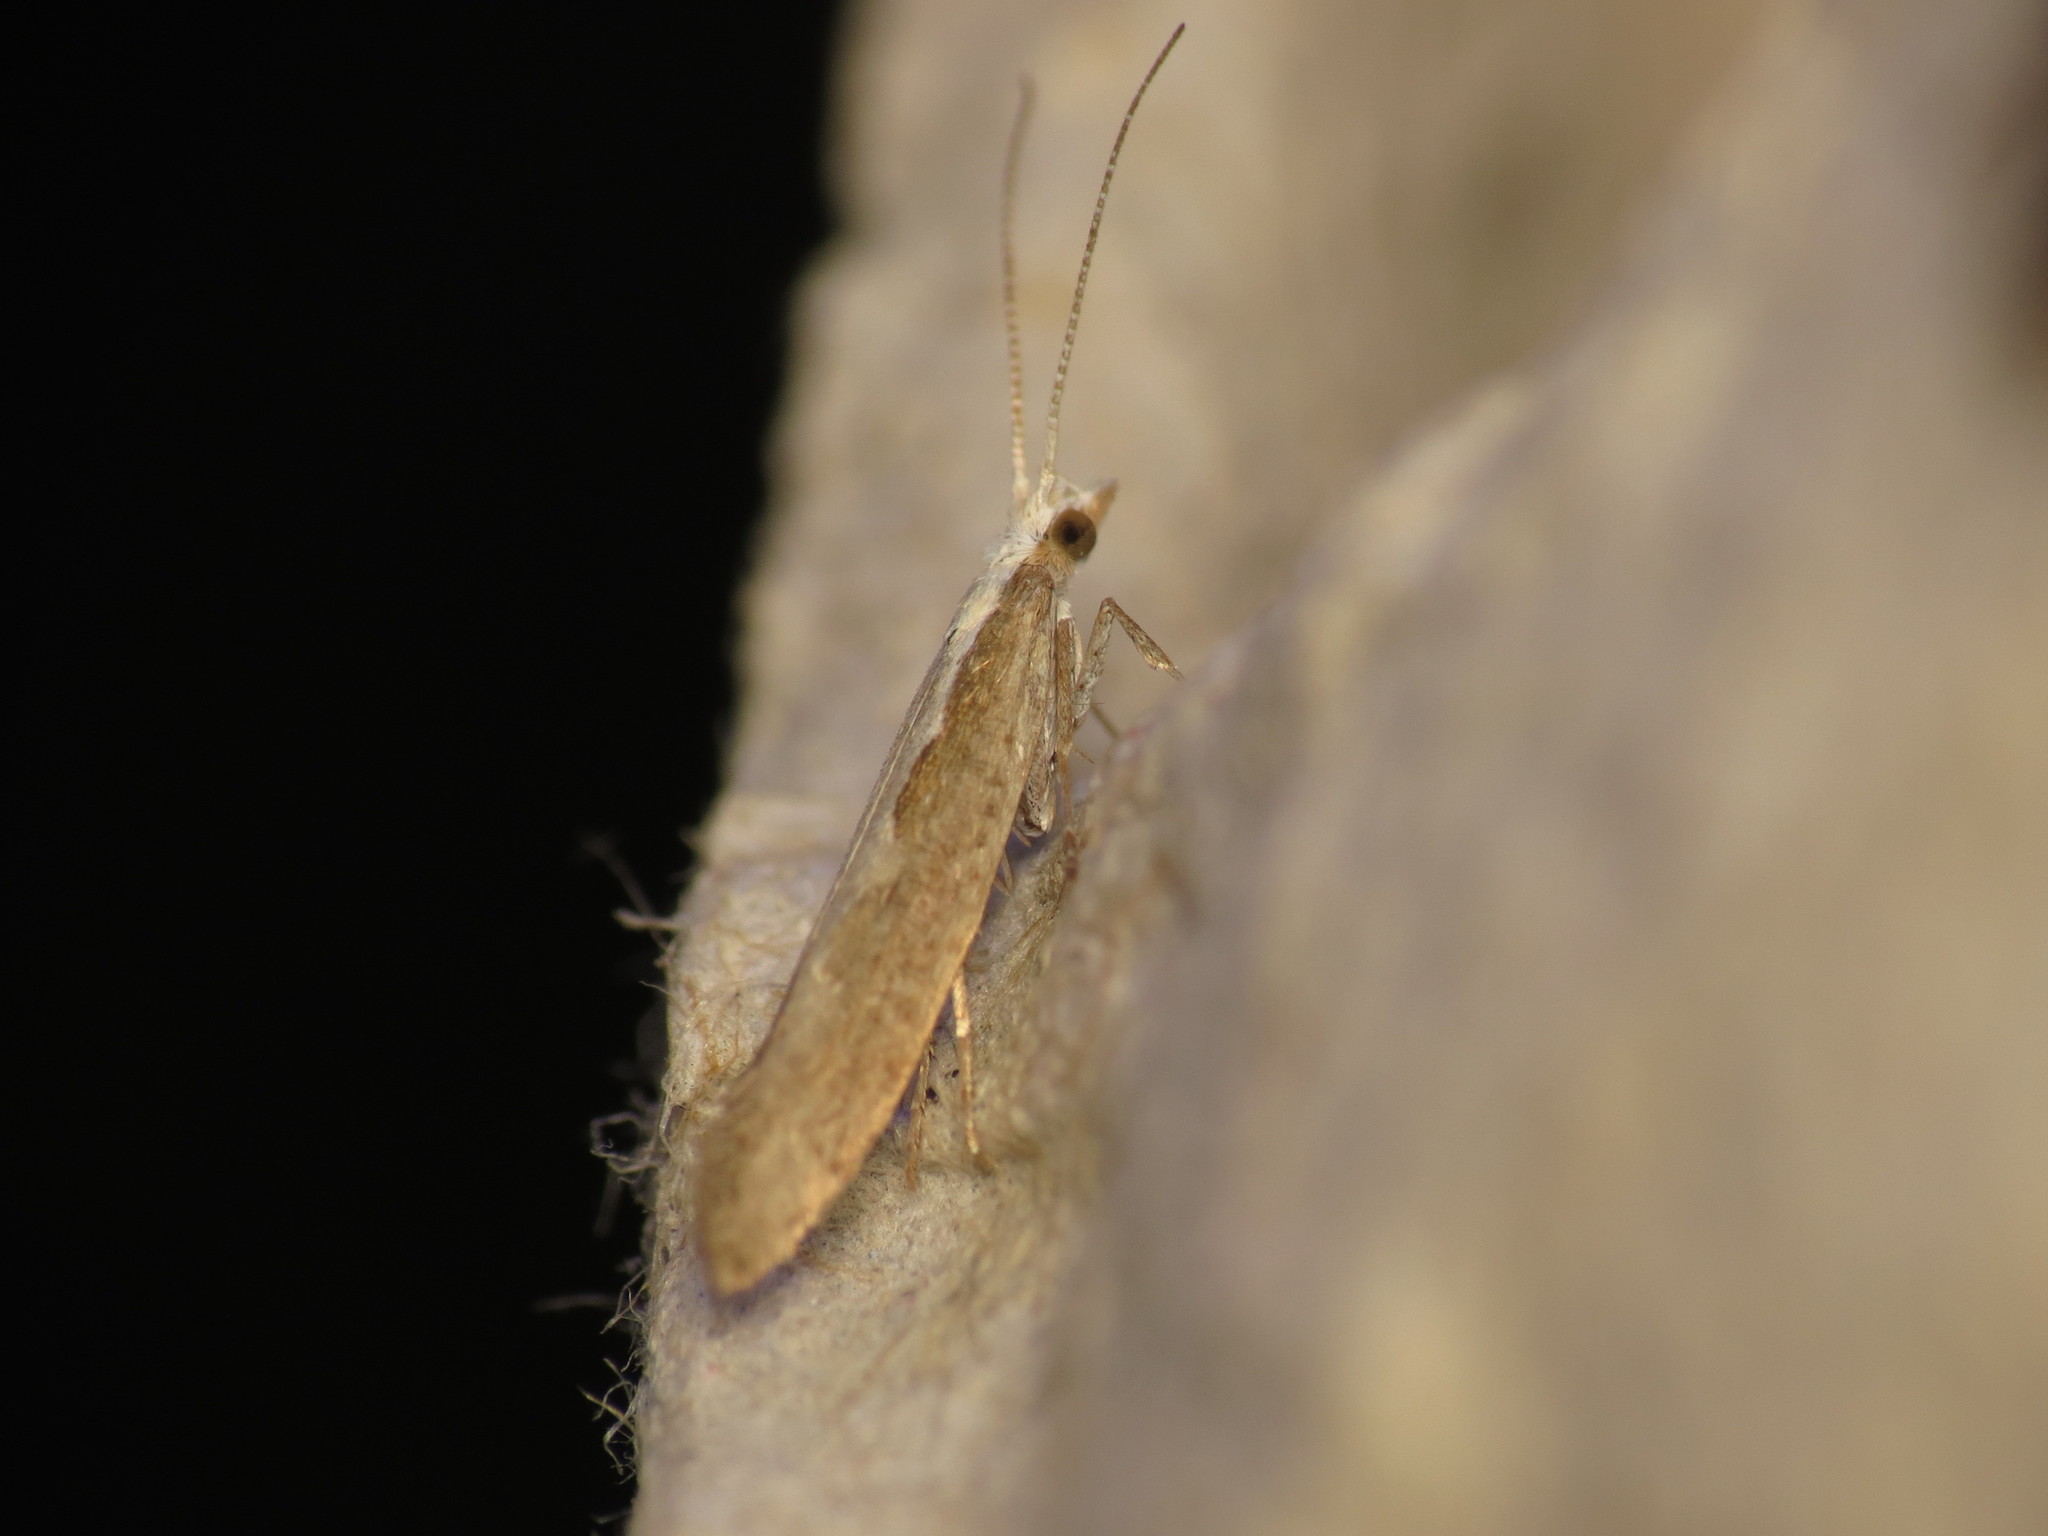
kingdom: Animalia
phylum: Arthropoda
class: Insecta
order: Lepidoptera
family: Plutellidae
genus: Plutella
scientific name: Plutella xylostella
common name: Diamond-back moth
